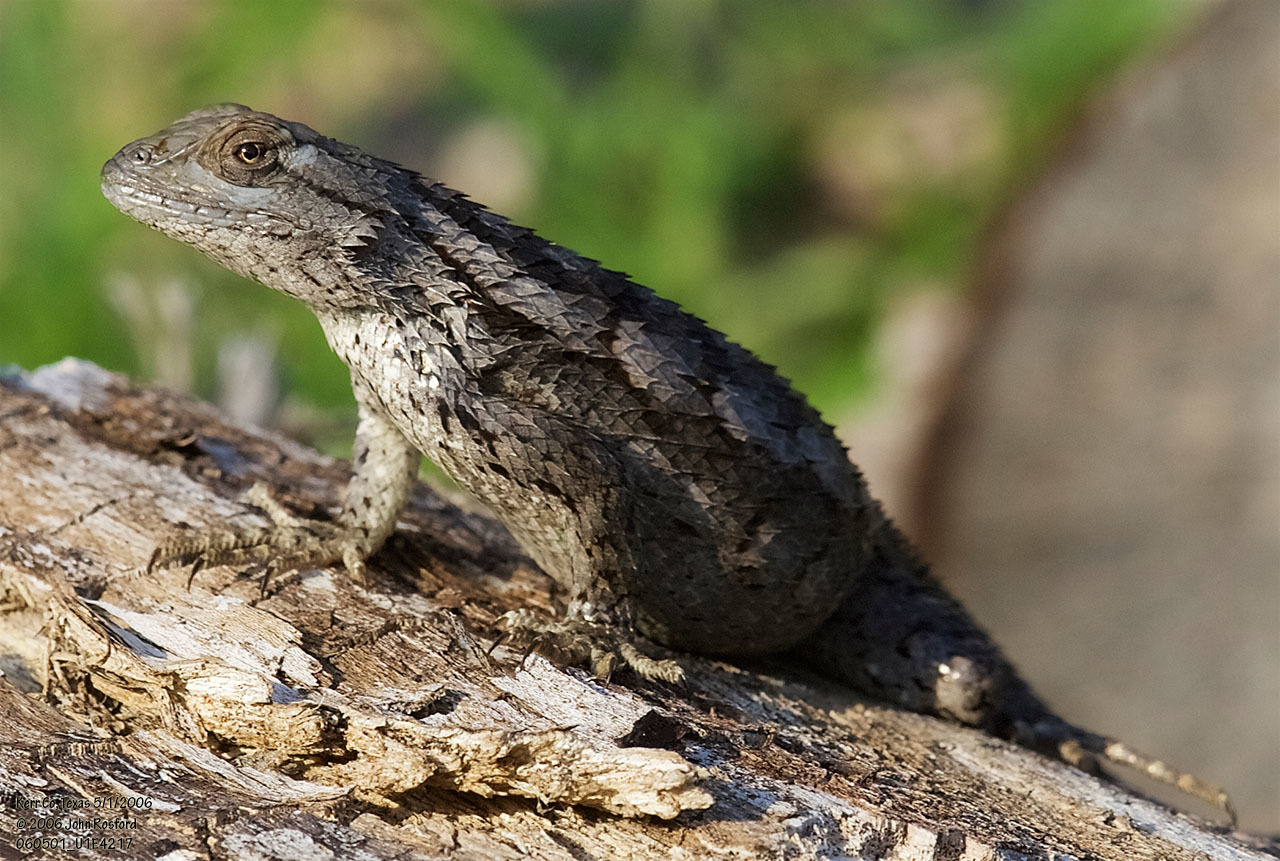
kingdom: Animalia
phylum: Chordata
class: Squamata
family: Phrynosomatidae
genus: Sceloporus
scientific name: Sceloporus olivaceus
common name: Texas spiny lizard
